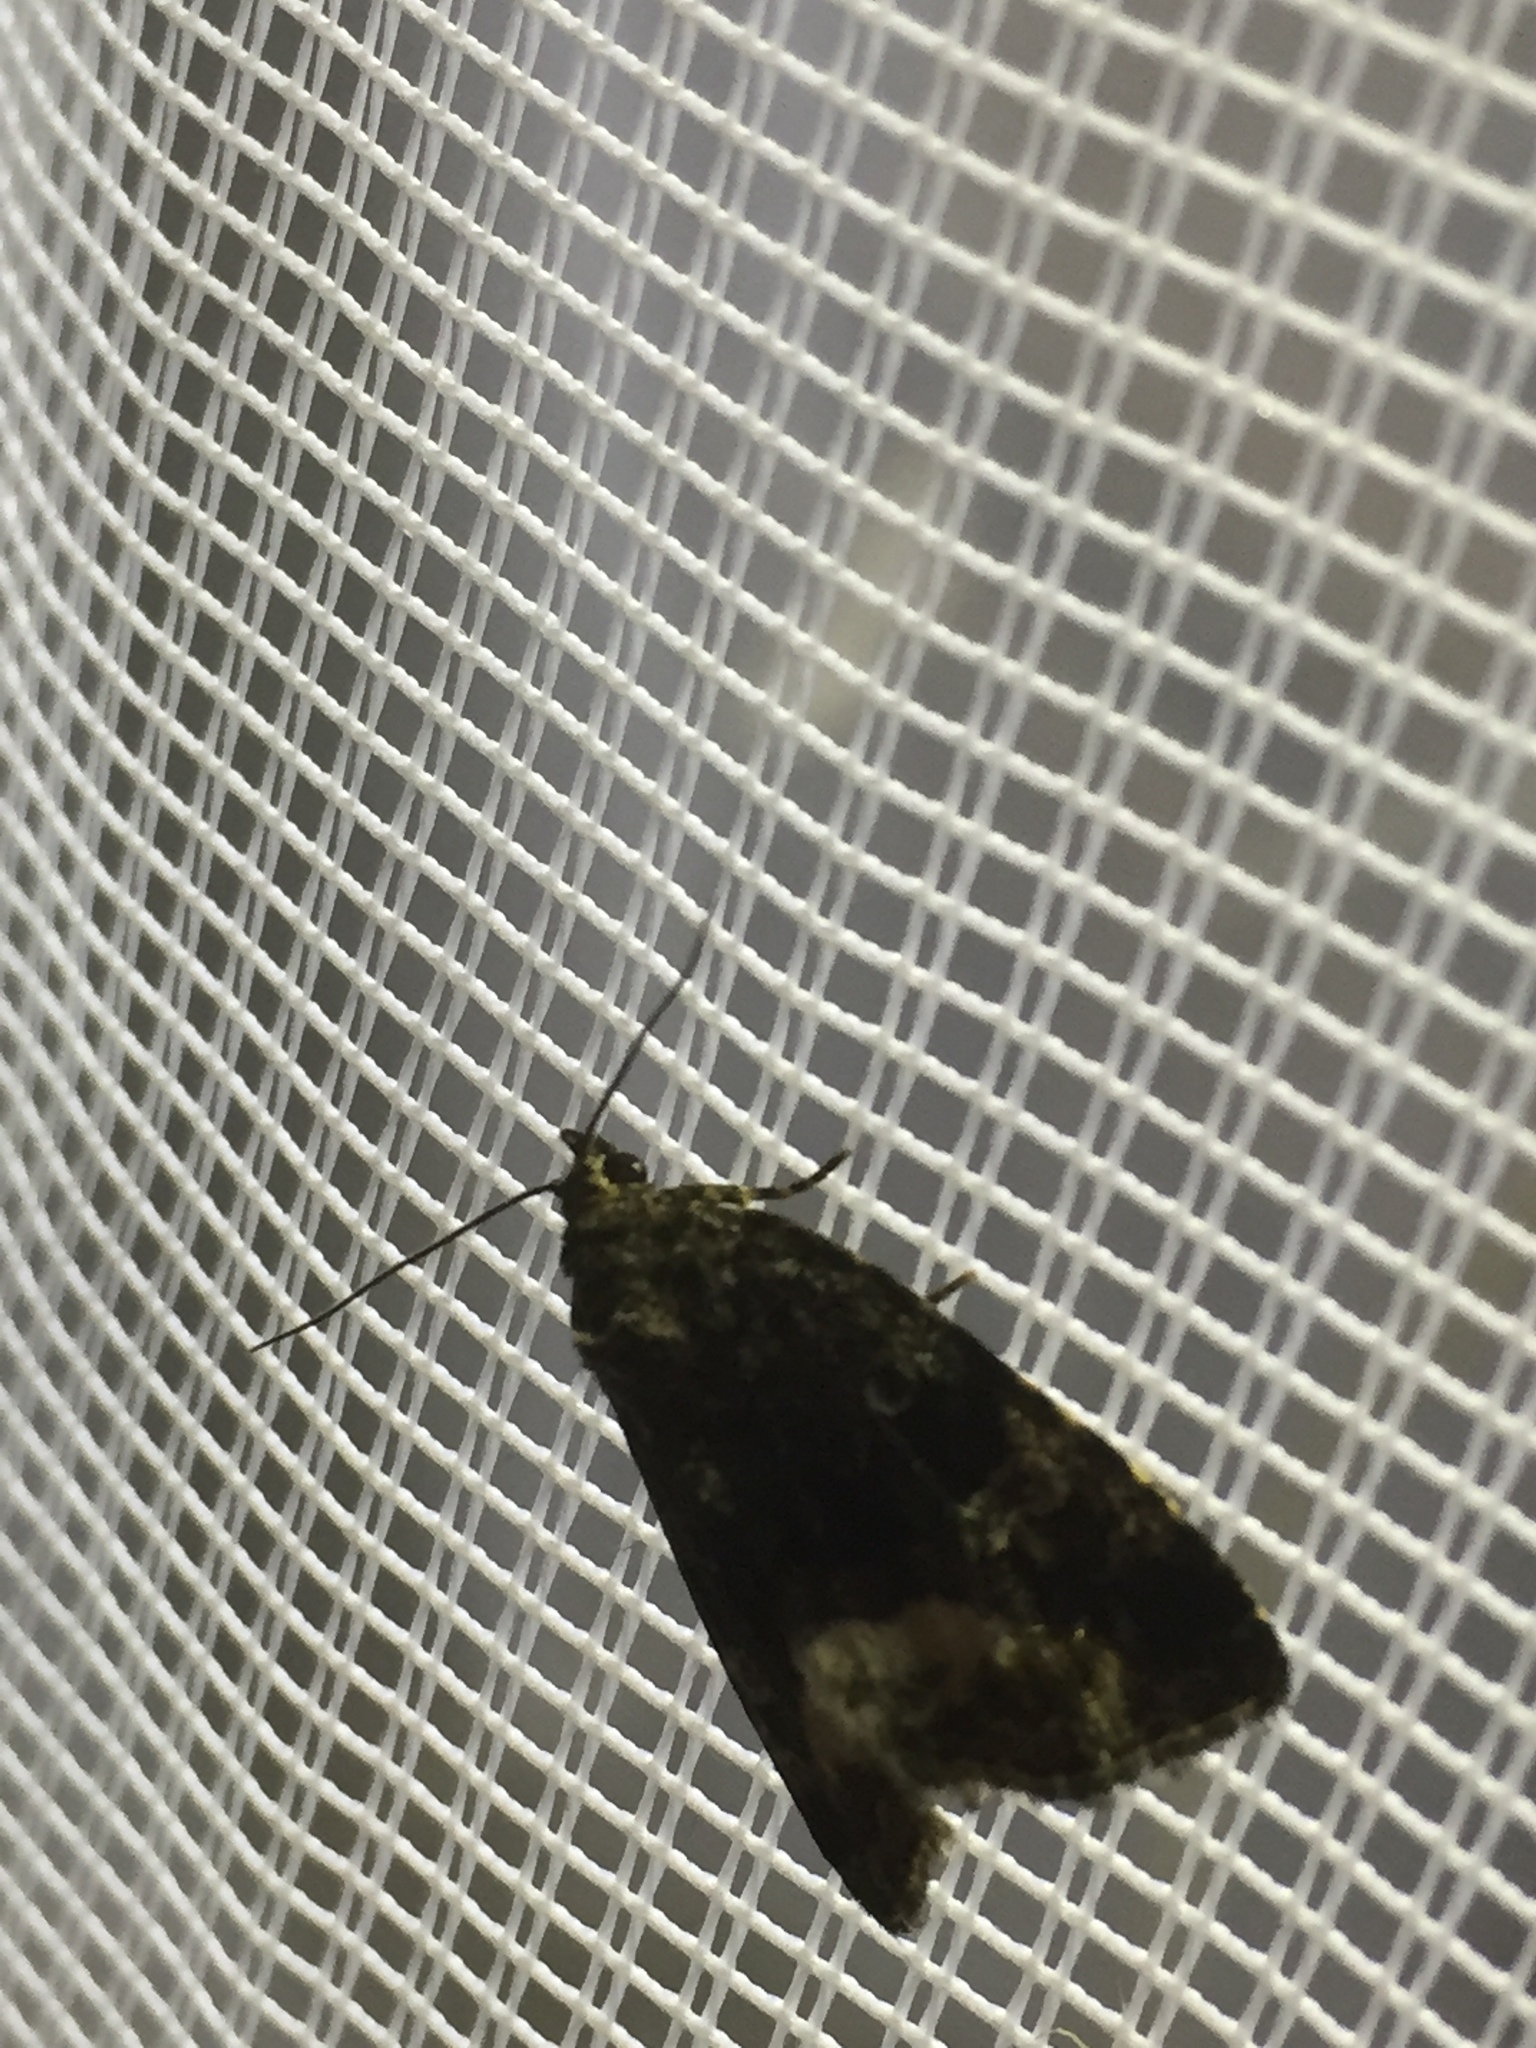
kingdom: Animalia
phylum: Arthropoda
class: Insecta
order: Lepidoptera
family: Noctuidae
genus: Deltote
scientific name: Deltote pygarga
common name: Marbled white spot
